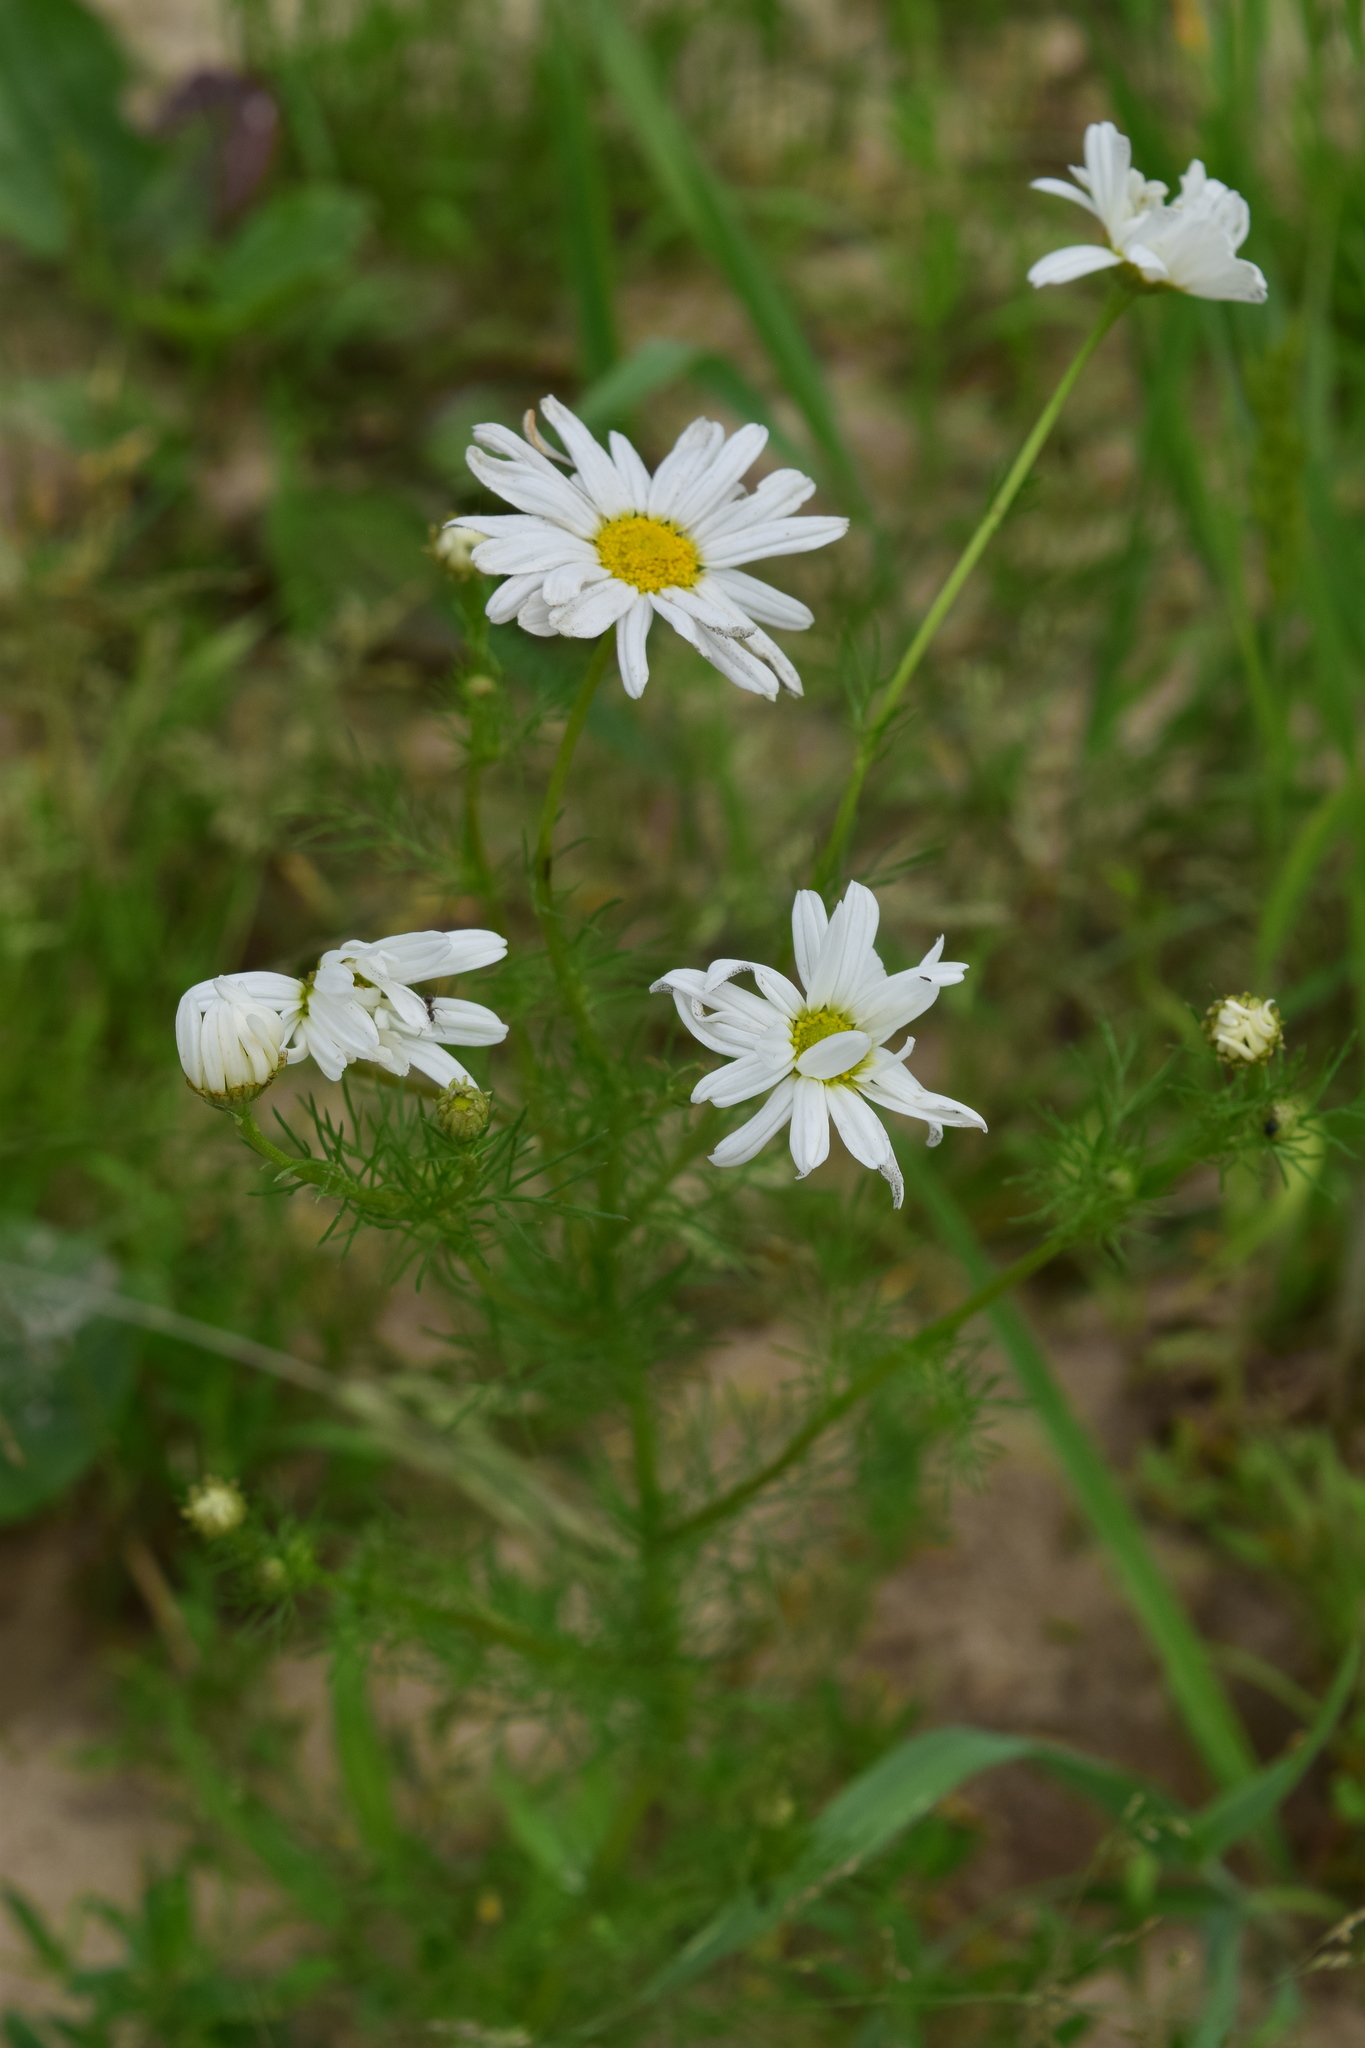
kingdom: Plantae
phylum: Tracheophyta
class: Magnoliopsida
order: Asterales
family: Asteraceae
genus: Tripleurospermum
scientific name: Tripleurospermum inodorum
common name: Scentless mayweed
